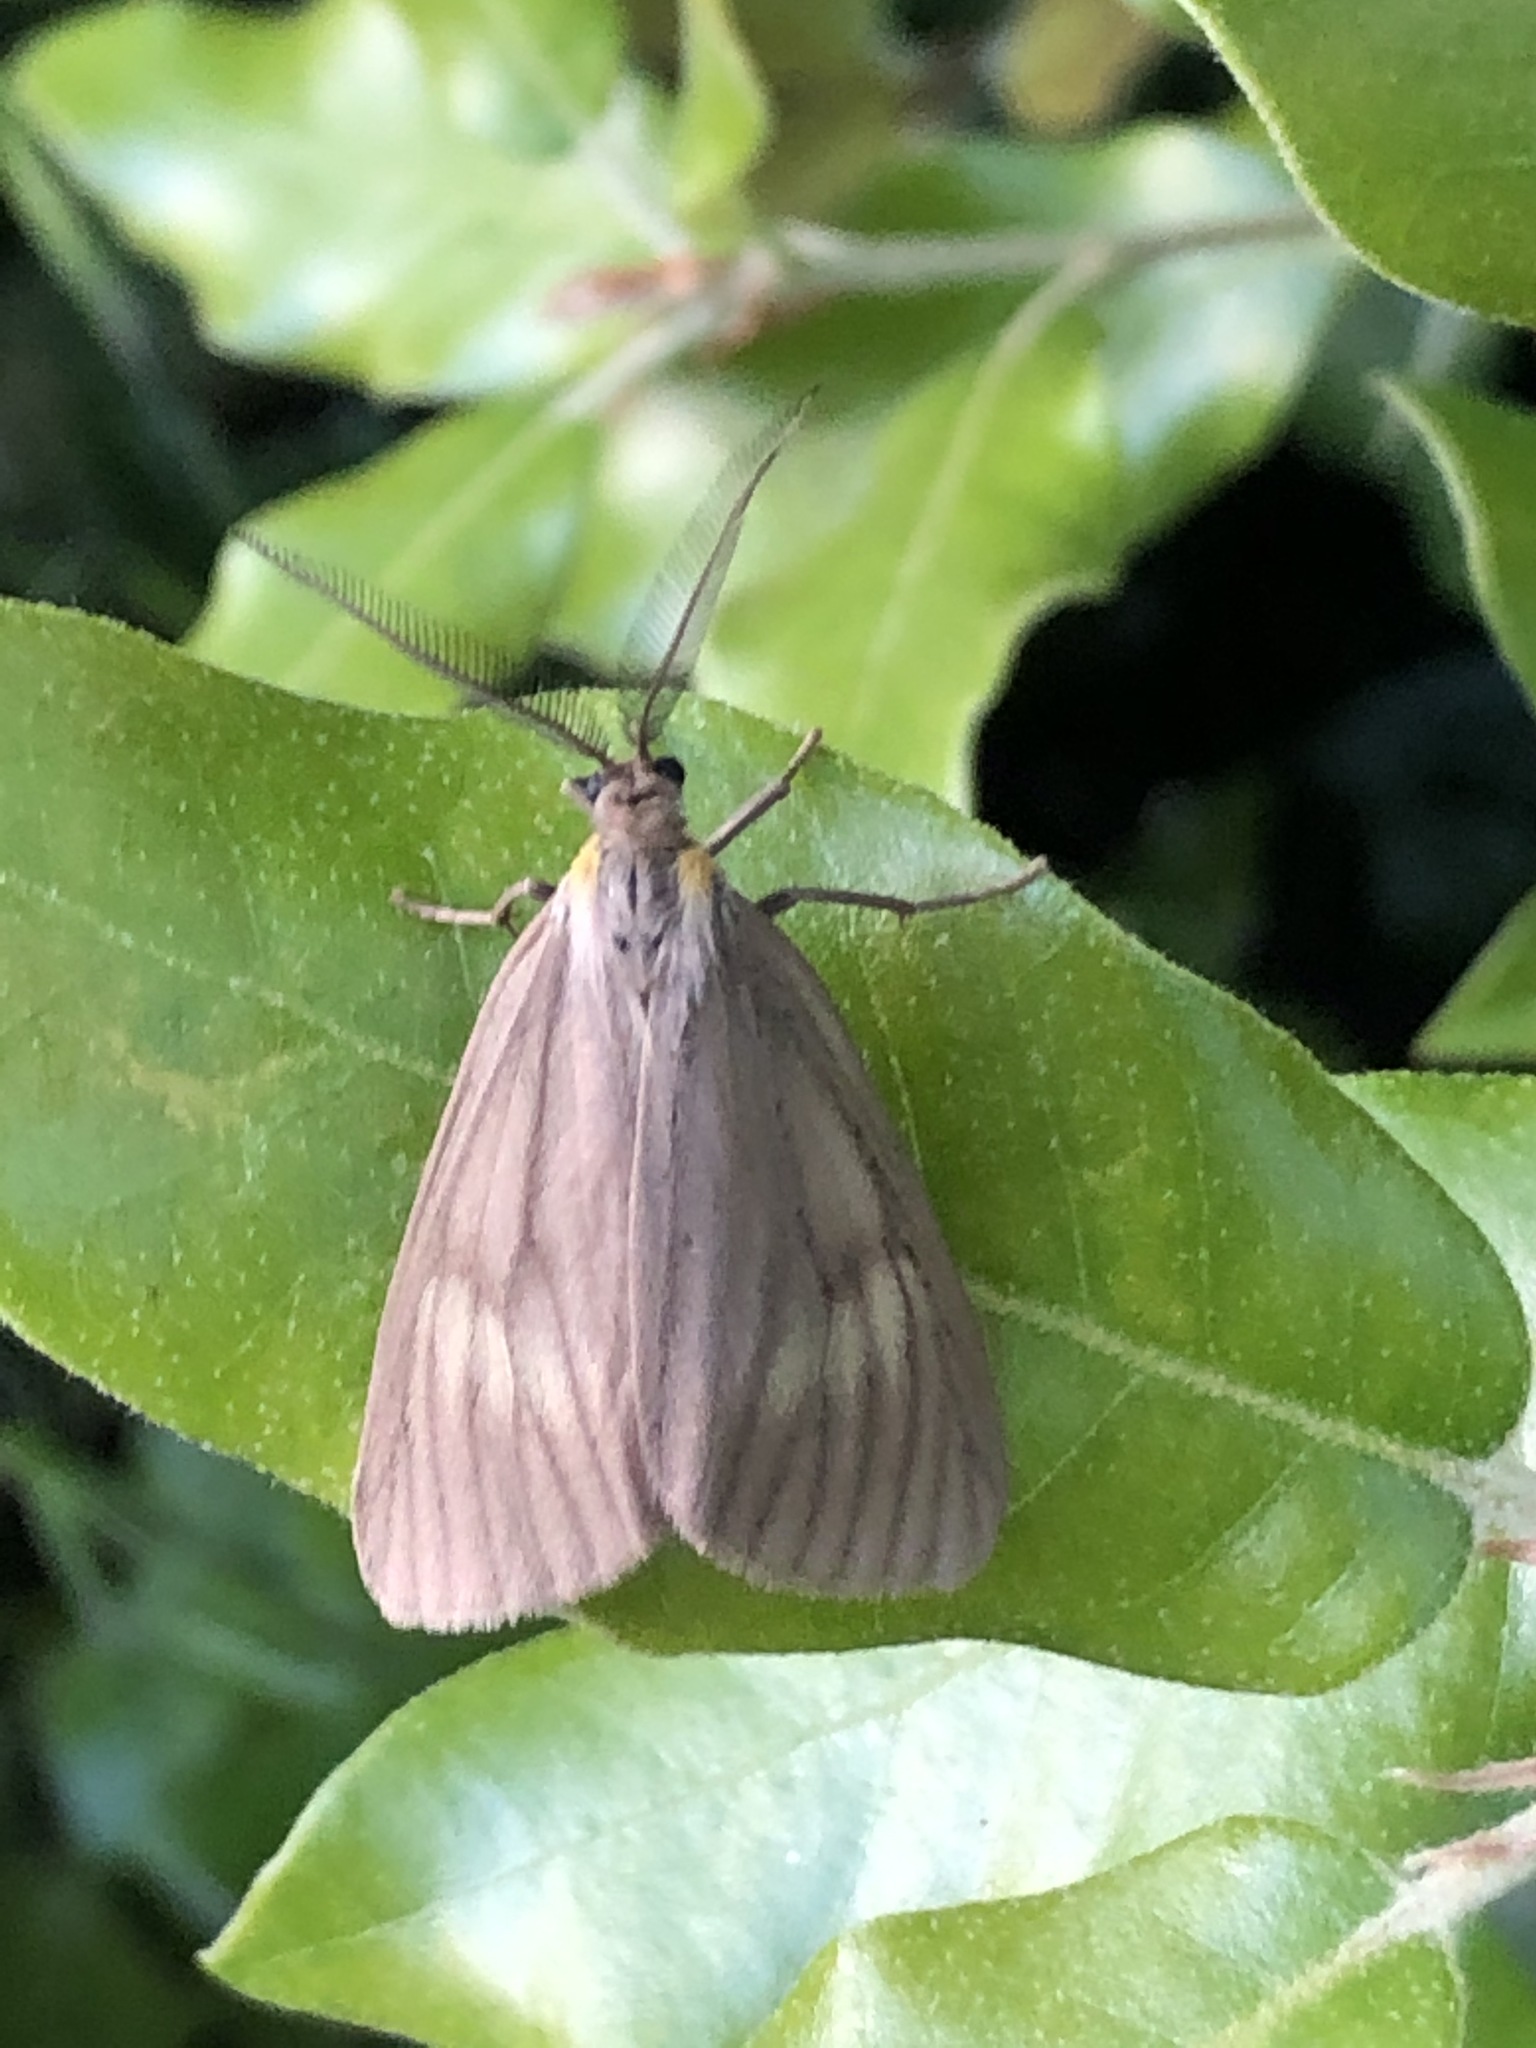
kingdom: Animalia
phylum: Arthropoda
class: Insecta
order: Lepidoptera
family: Notodontidae
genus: Phryganidia
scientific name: Phryganidia californica
